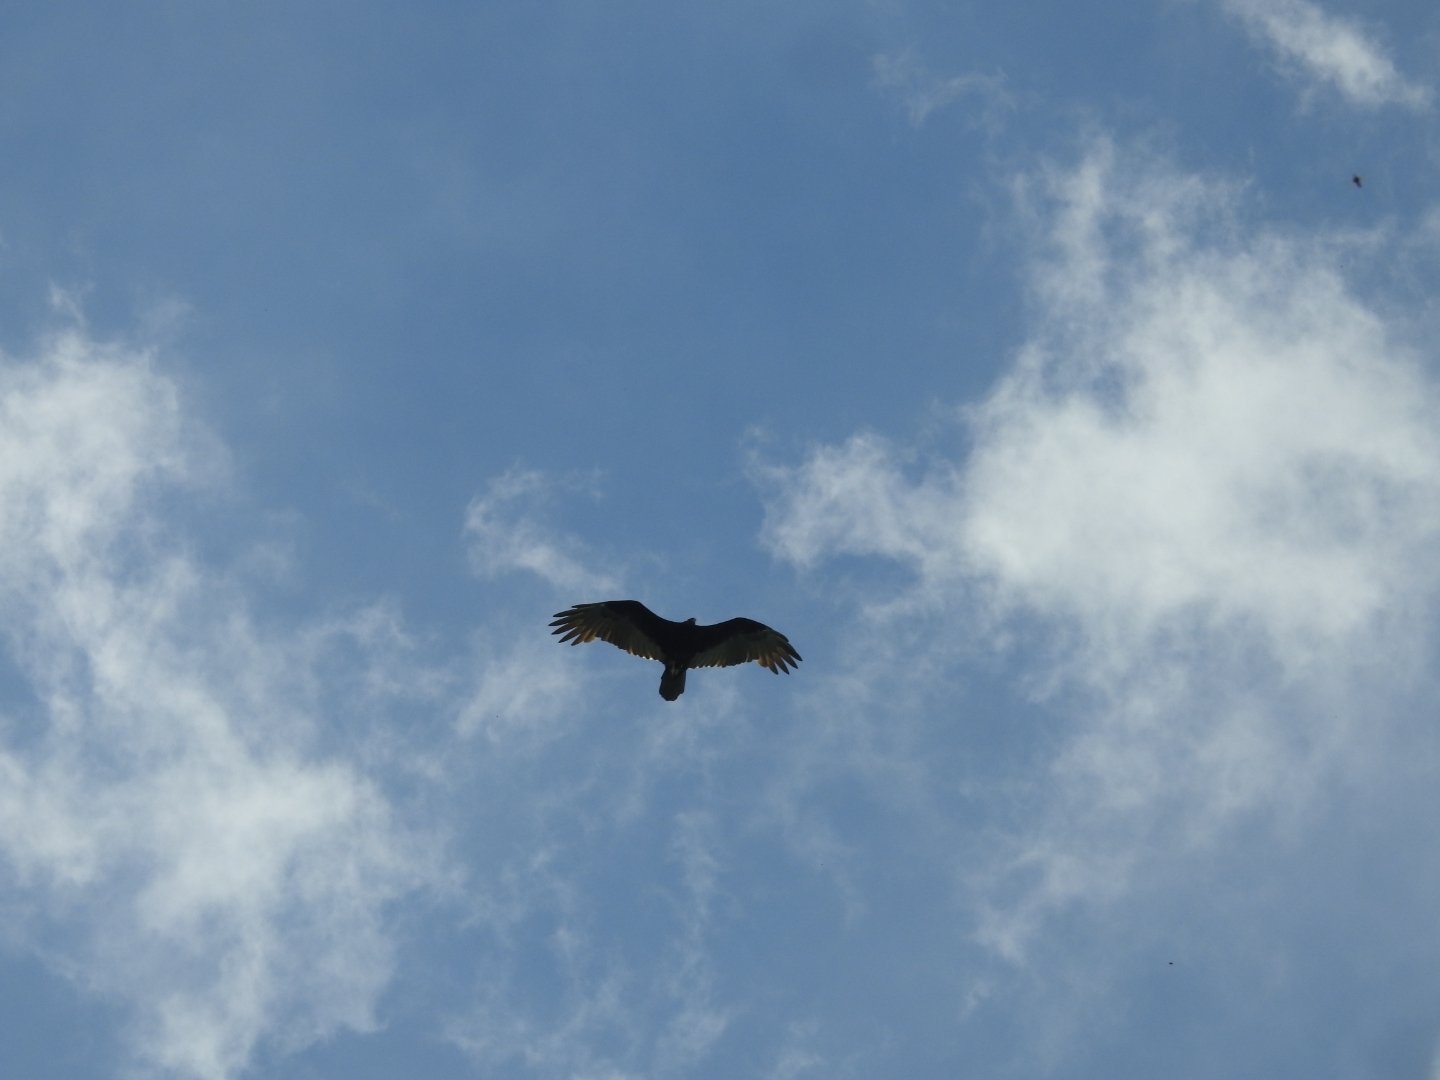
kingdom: Animalia
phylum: Chordata
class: Aves
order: Accipitriformes
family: Cathartidae
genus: Cathartes
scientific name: Cathartes aura
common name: Turkey vulture
